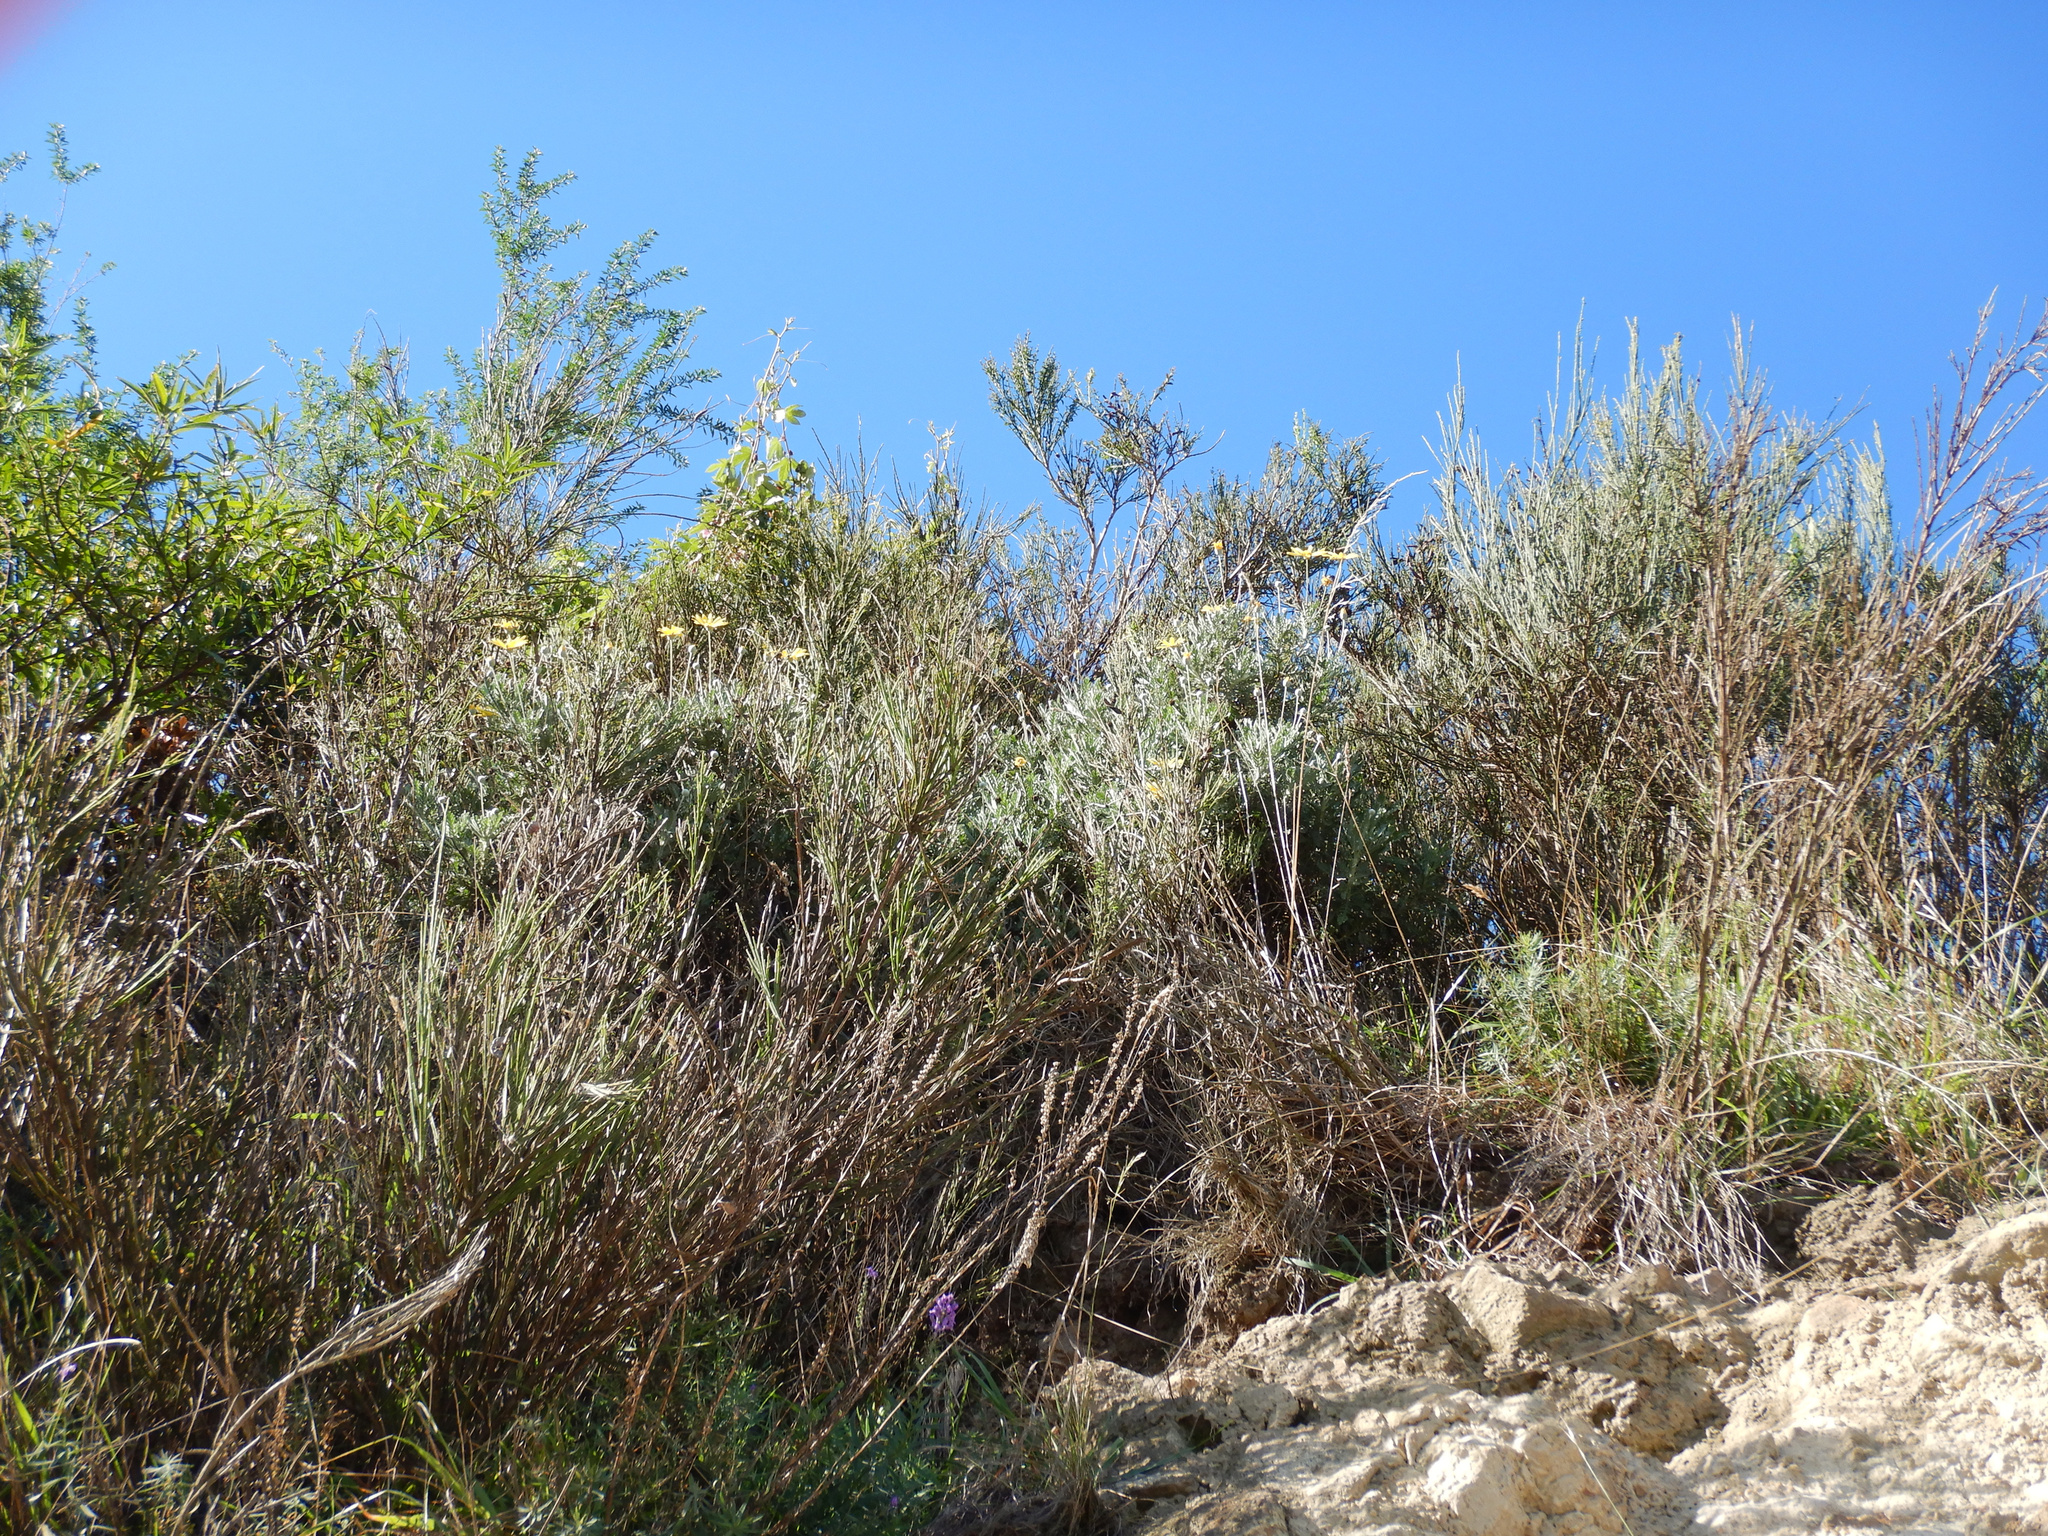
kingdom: Plantae
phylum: Tracheophyta
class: Magnoliopsida
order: Asterales
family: Asteraceae
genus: Euryops
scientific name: Euryops pectinatus
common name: Gray-leaf euryops
